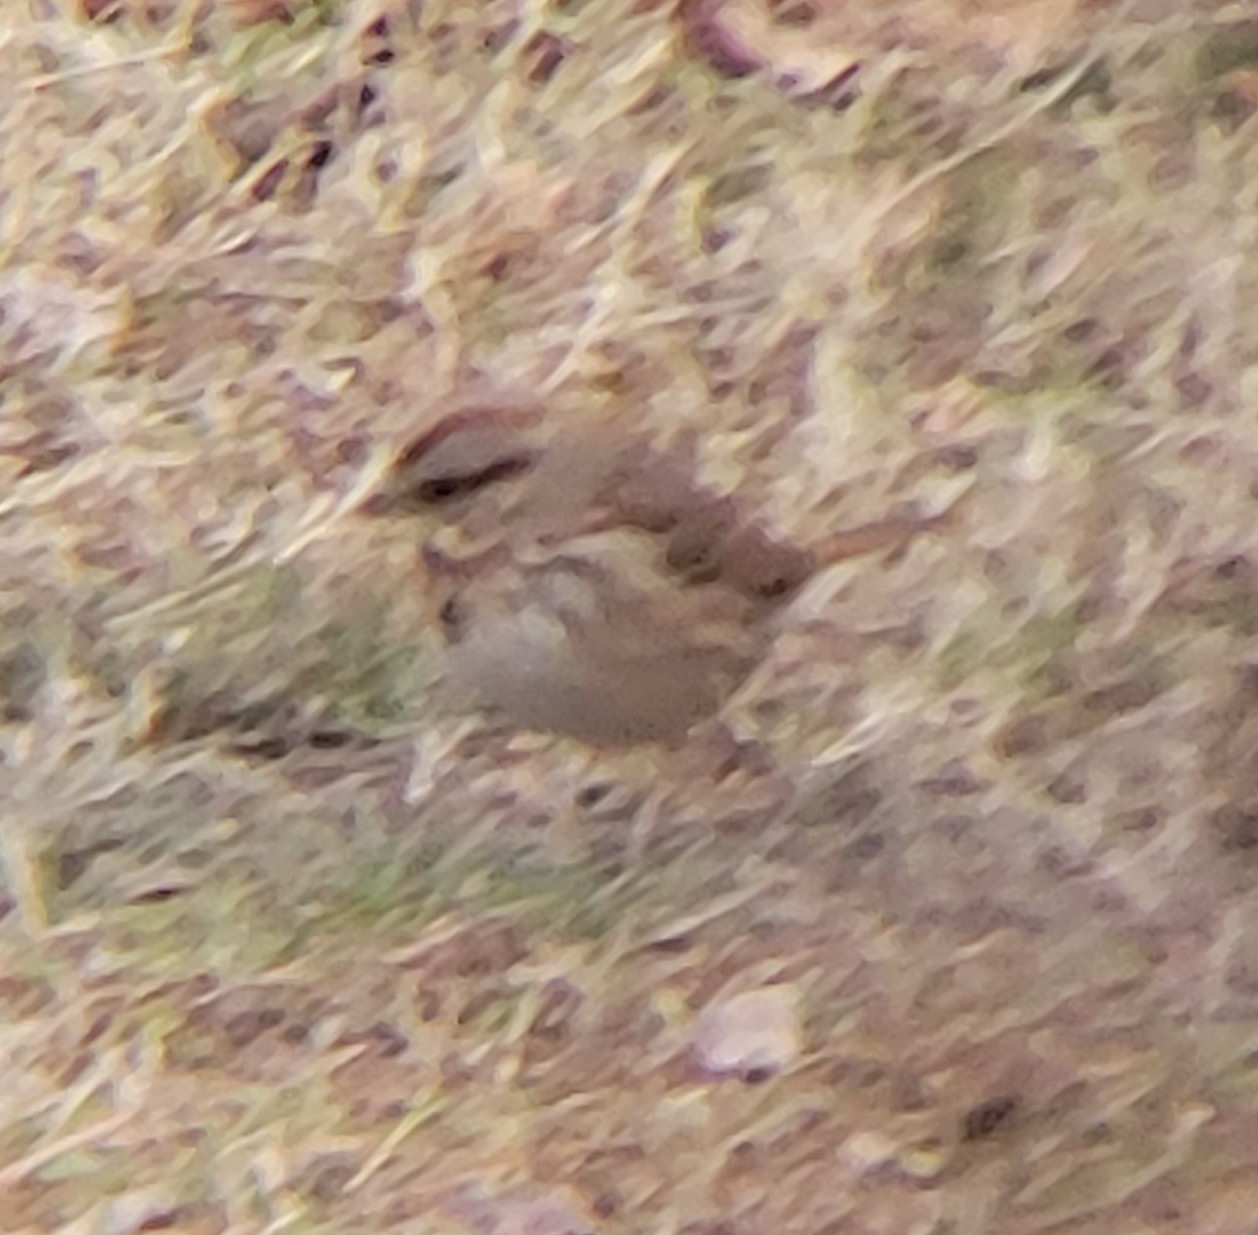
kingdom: Animalia
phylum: Chordata
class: Aves
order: Passeriformes
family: Passerellidae
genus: Melospiza
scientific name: Melospiza melodia
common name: Song sparrow
